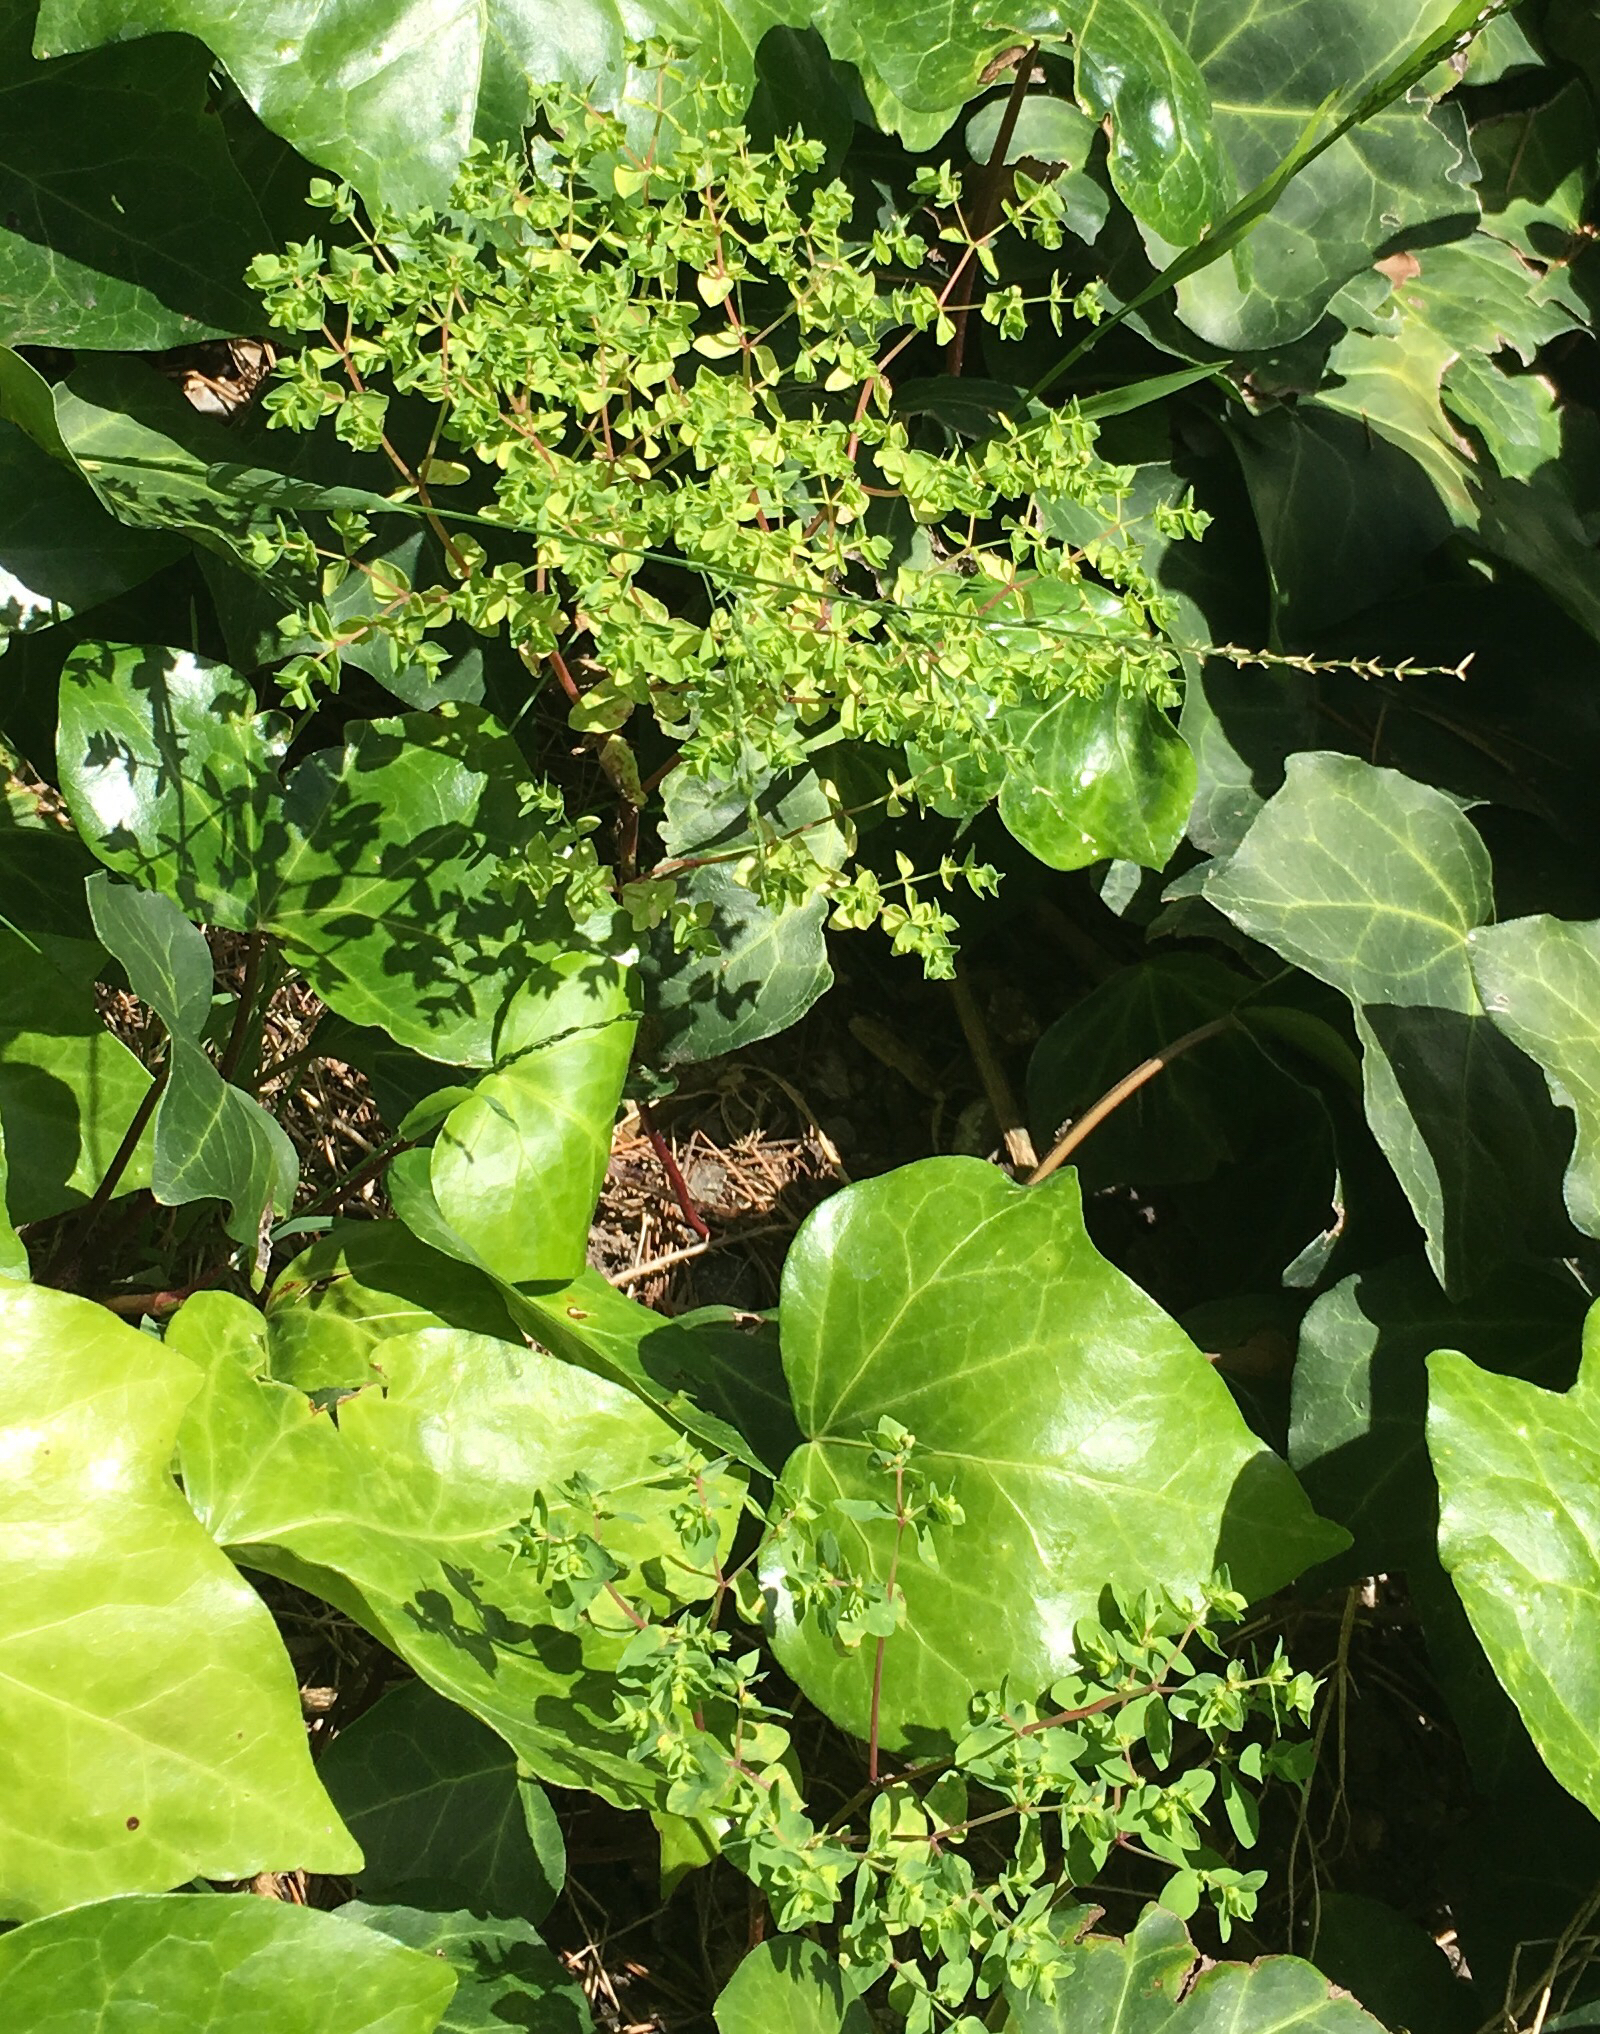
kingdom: Plantae
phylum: Tracheophyta
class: Magnoliopsida
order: Malpighiales
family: Euphorbiaceae
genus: Euphorbia
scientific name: Euphorbia peplus
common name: Petty spurge
